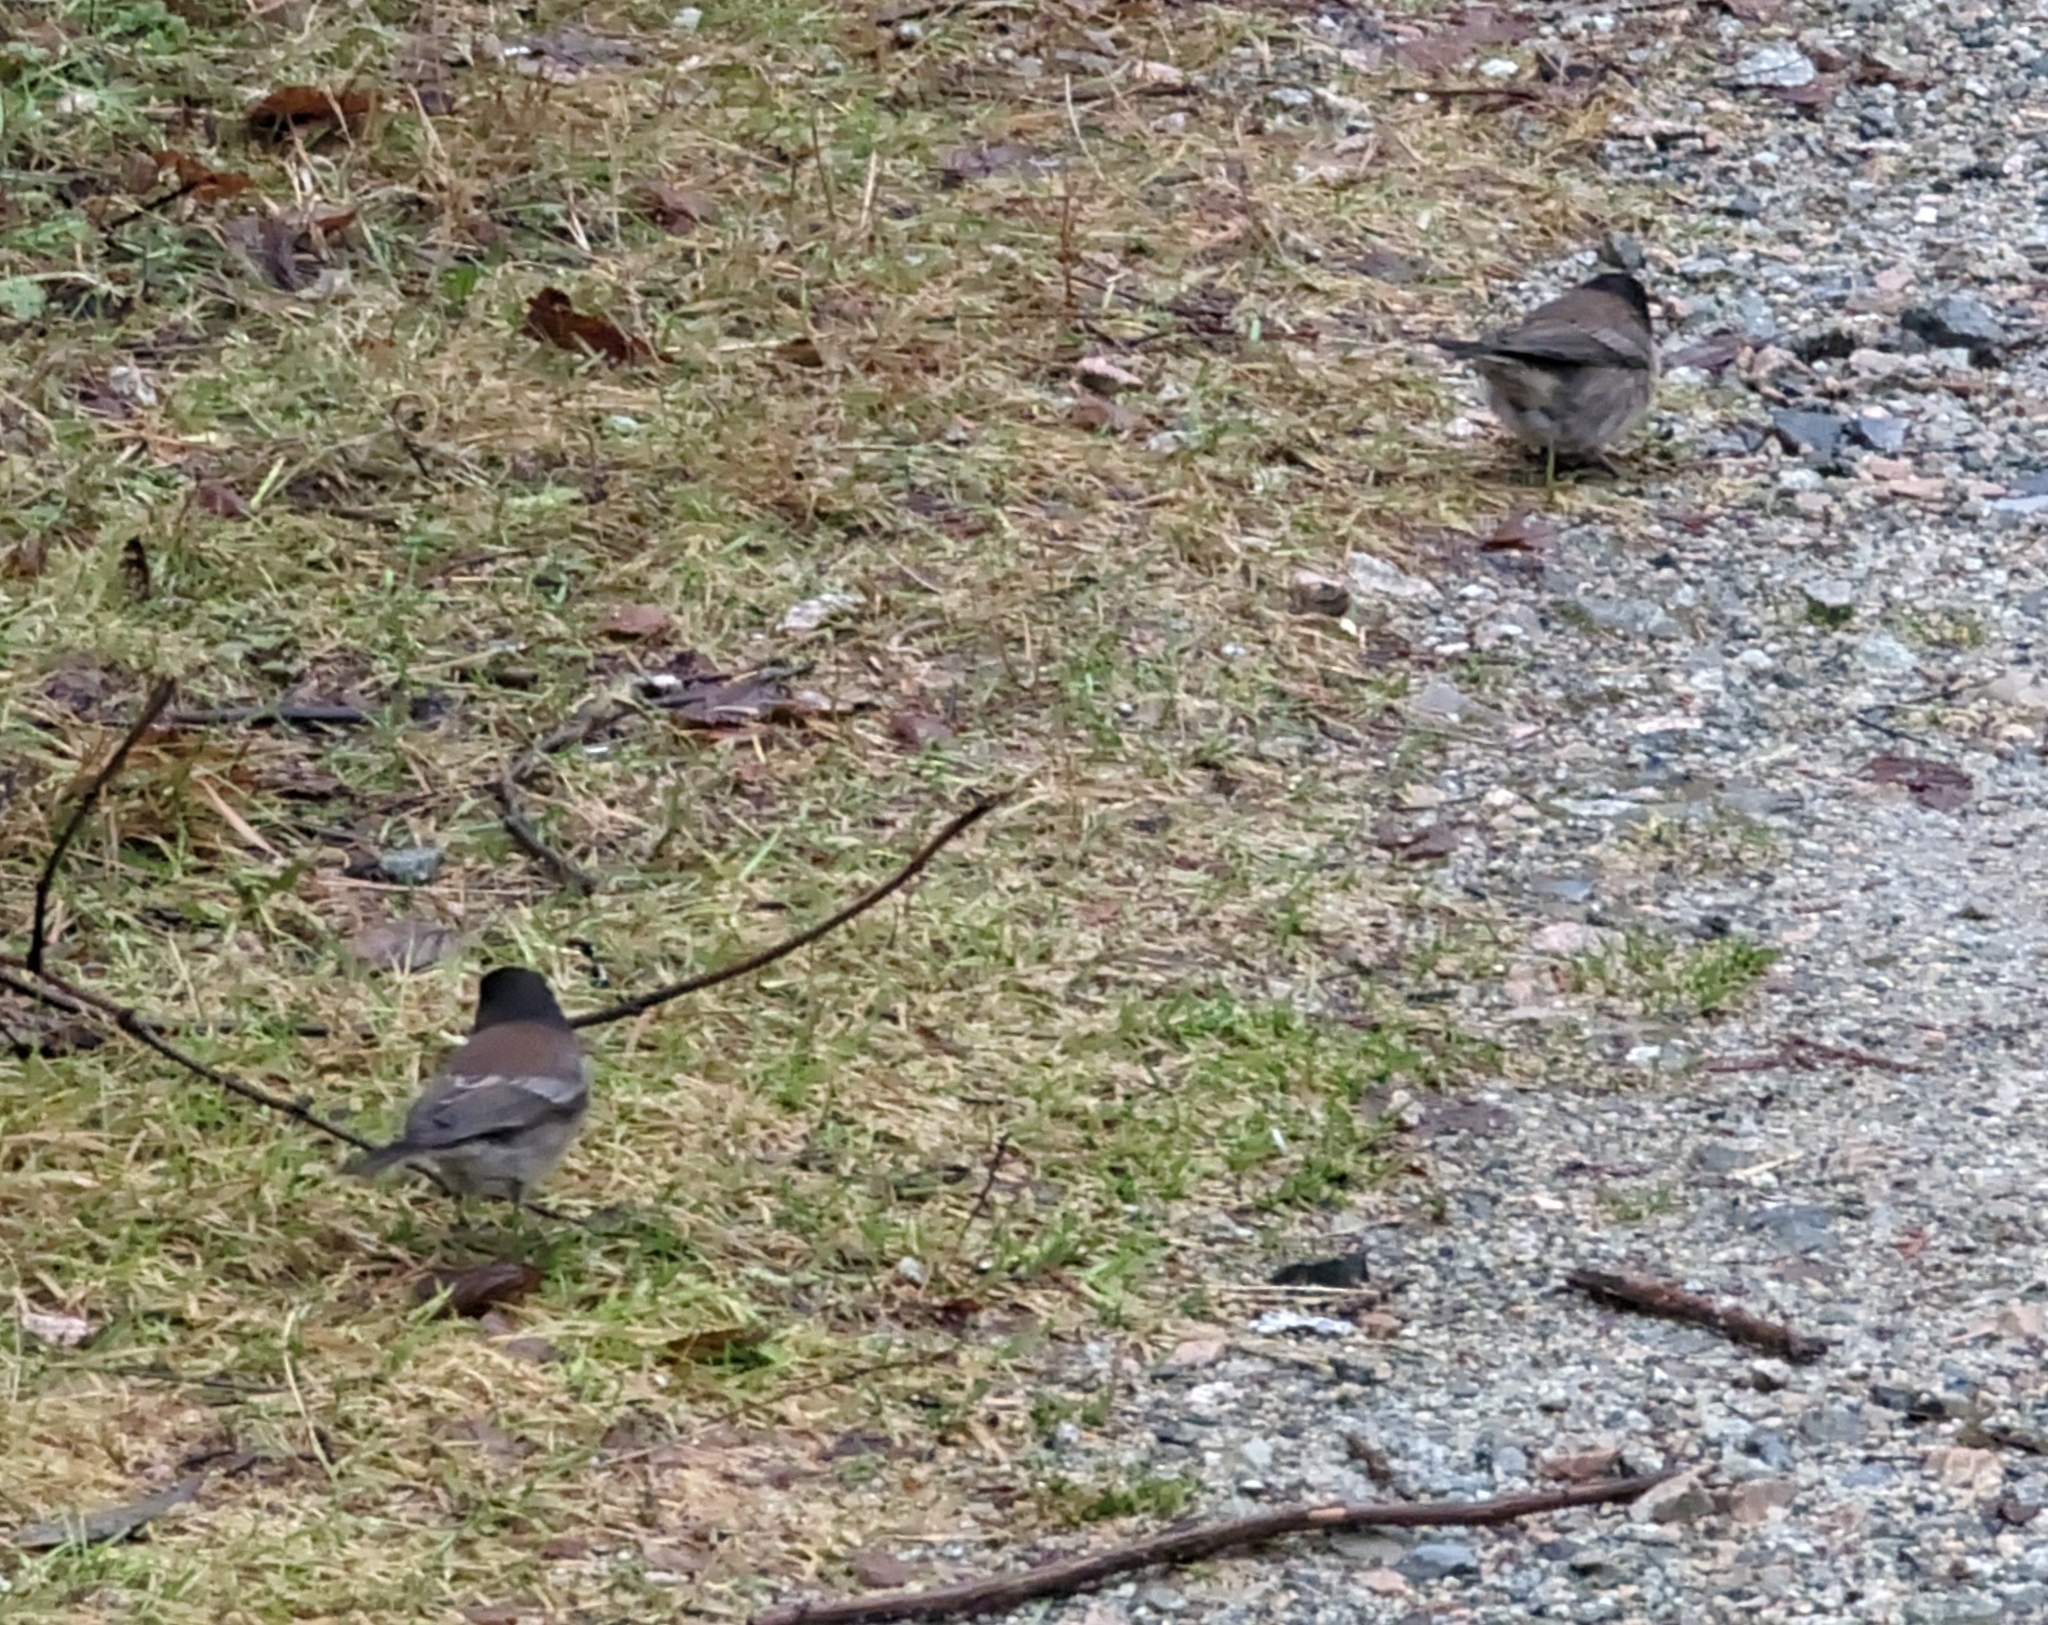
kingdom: Animalia
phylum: Chordata
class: Aves
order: Passeriformes
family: Passerellidae
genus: Junco
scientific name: Junco hyemalis
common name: Dark-eyed junco
